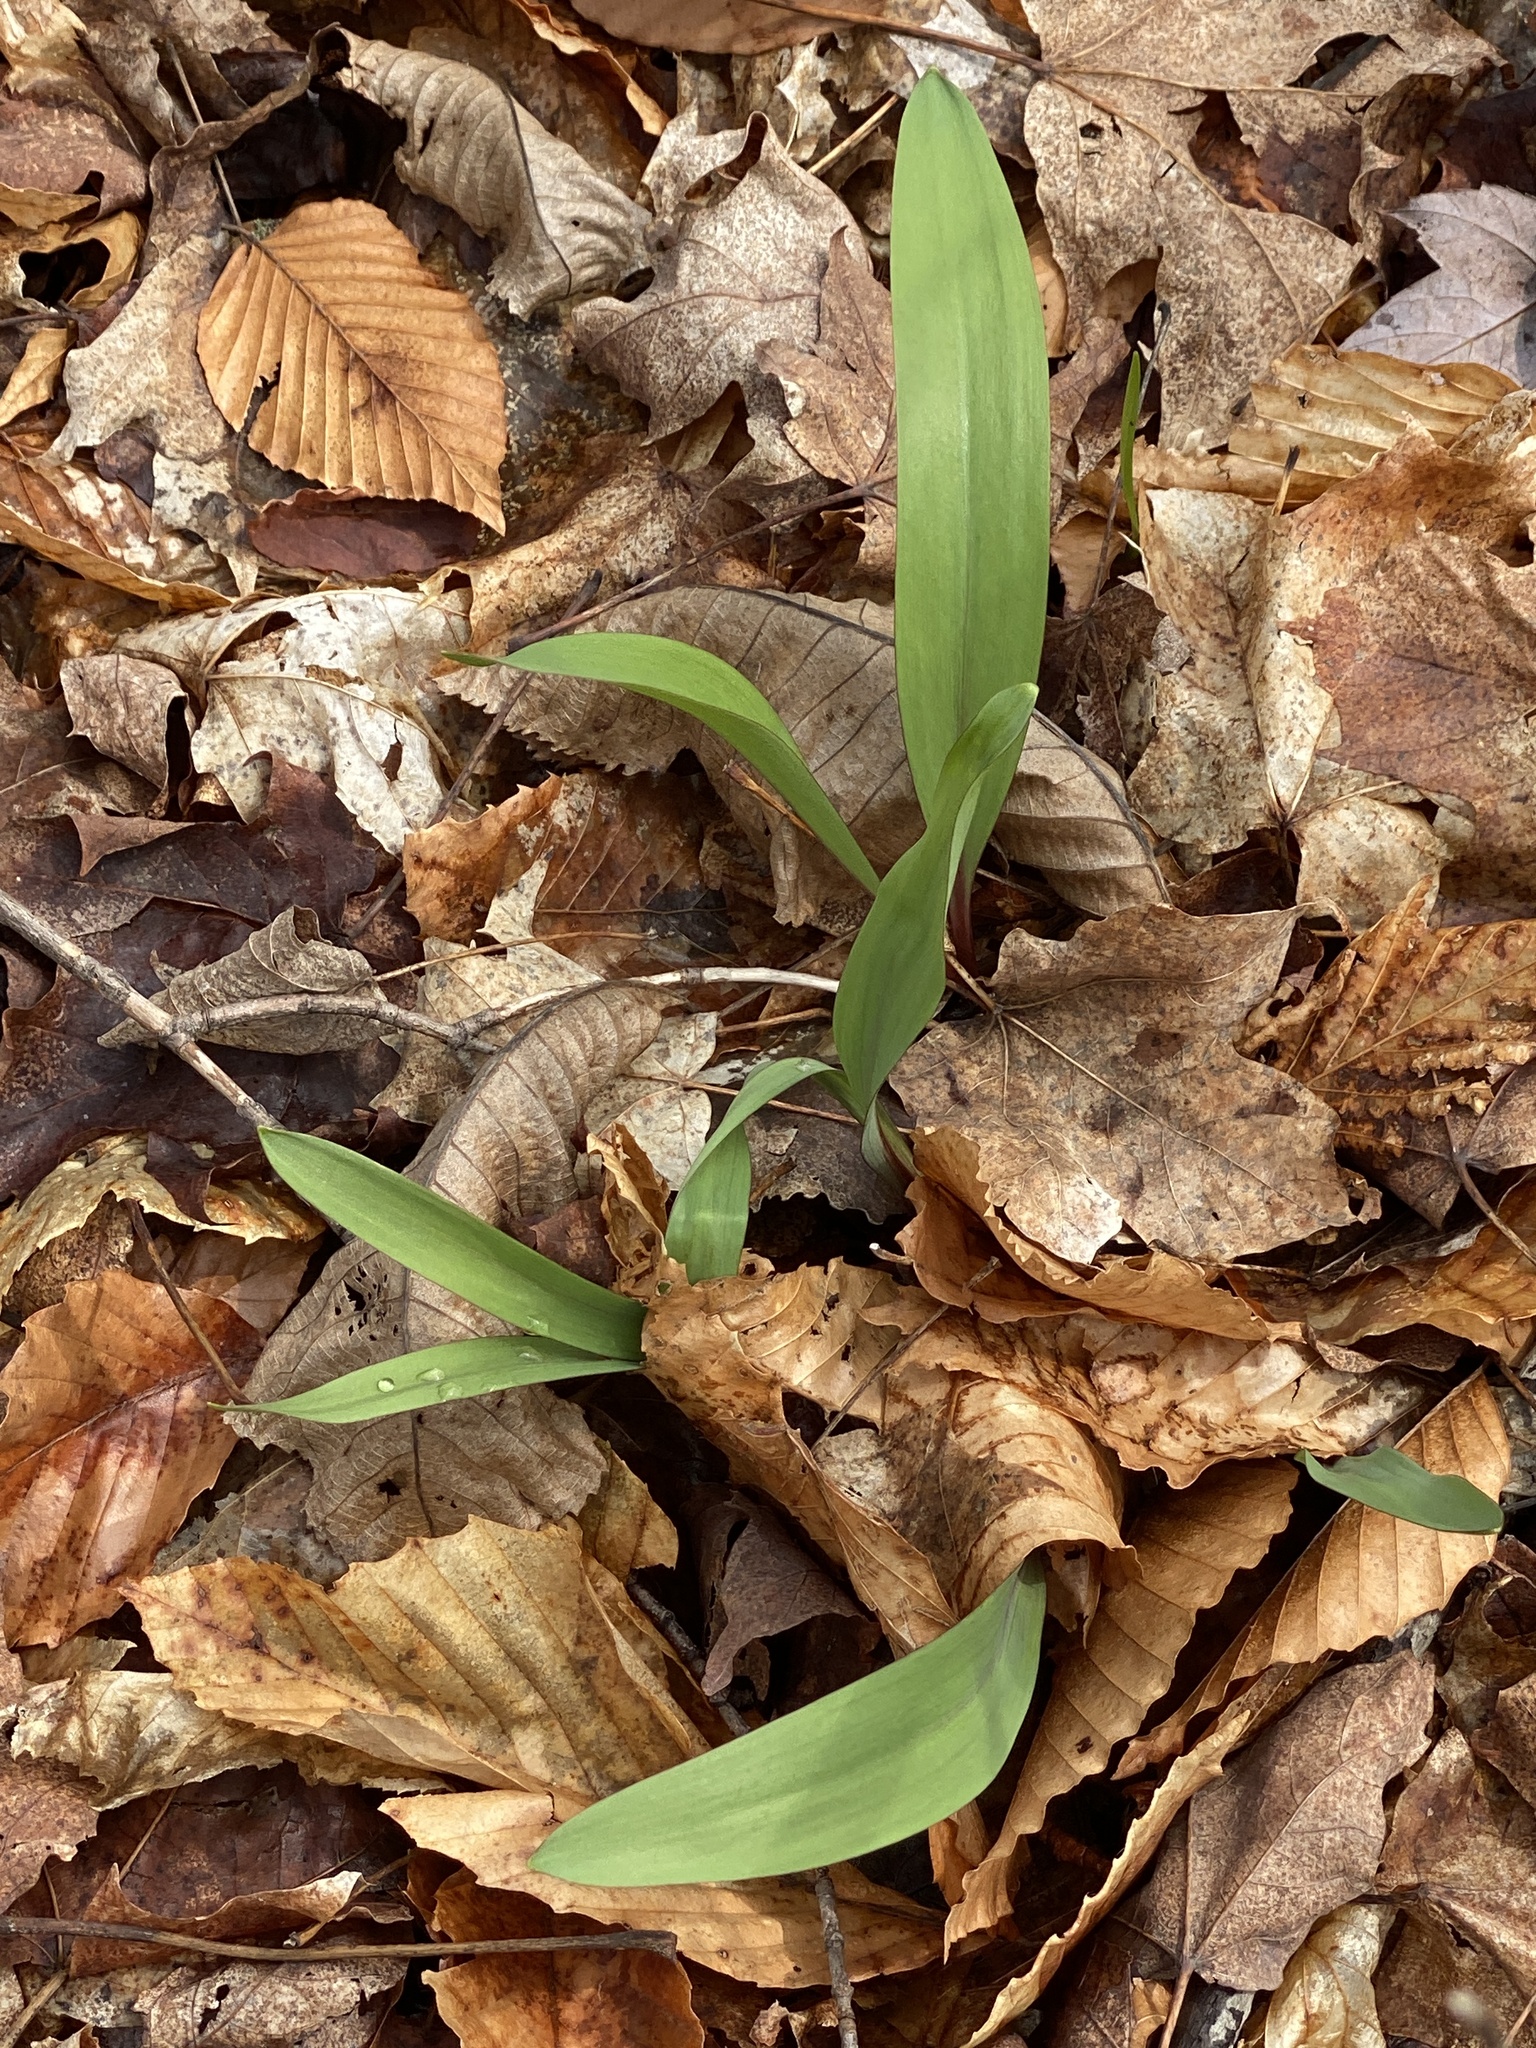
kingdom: Plantae
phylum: Tracheophyta
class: Liliopsida
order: Asparagales
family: Amaryllidaceae
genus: Allium
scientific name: Allium tricoccum
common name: Ramp
